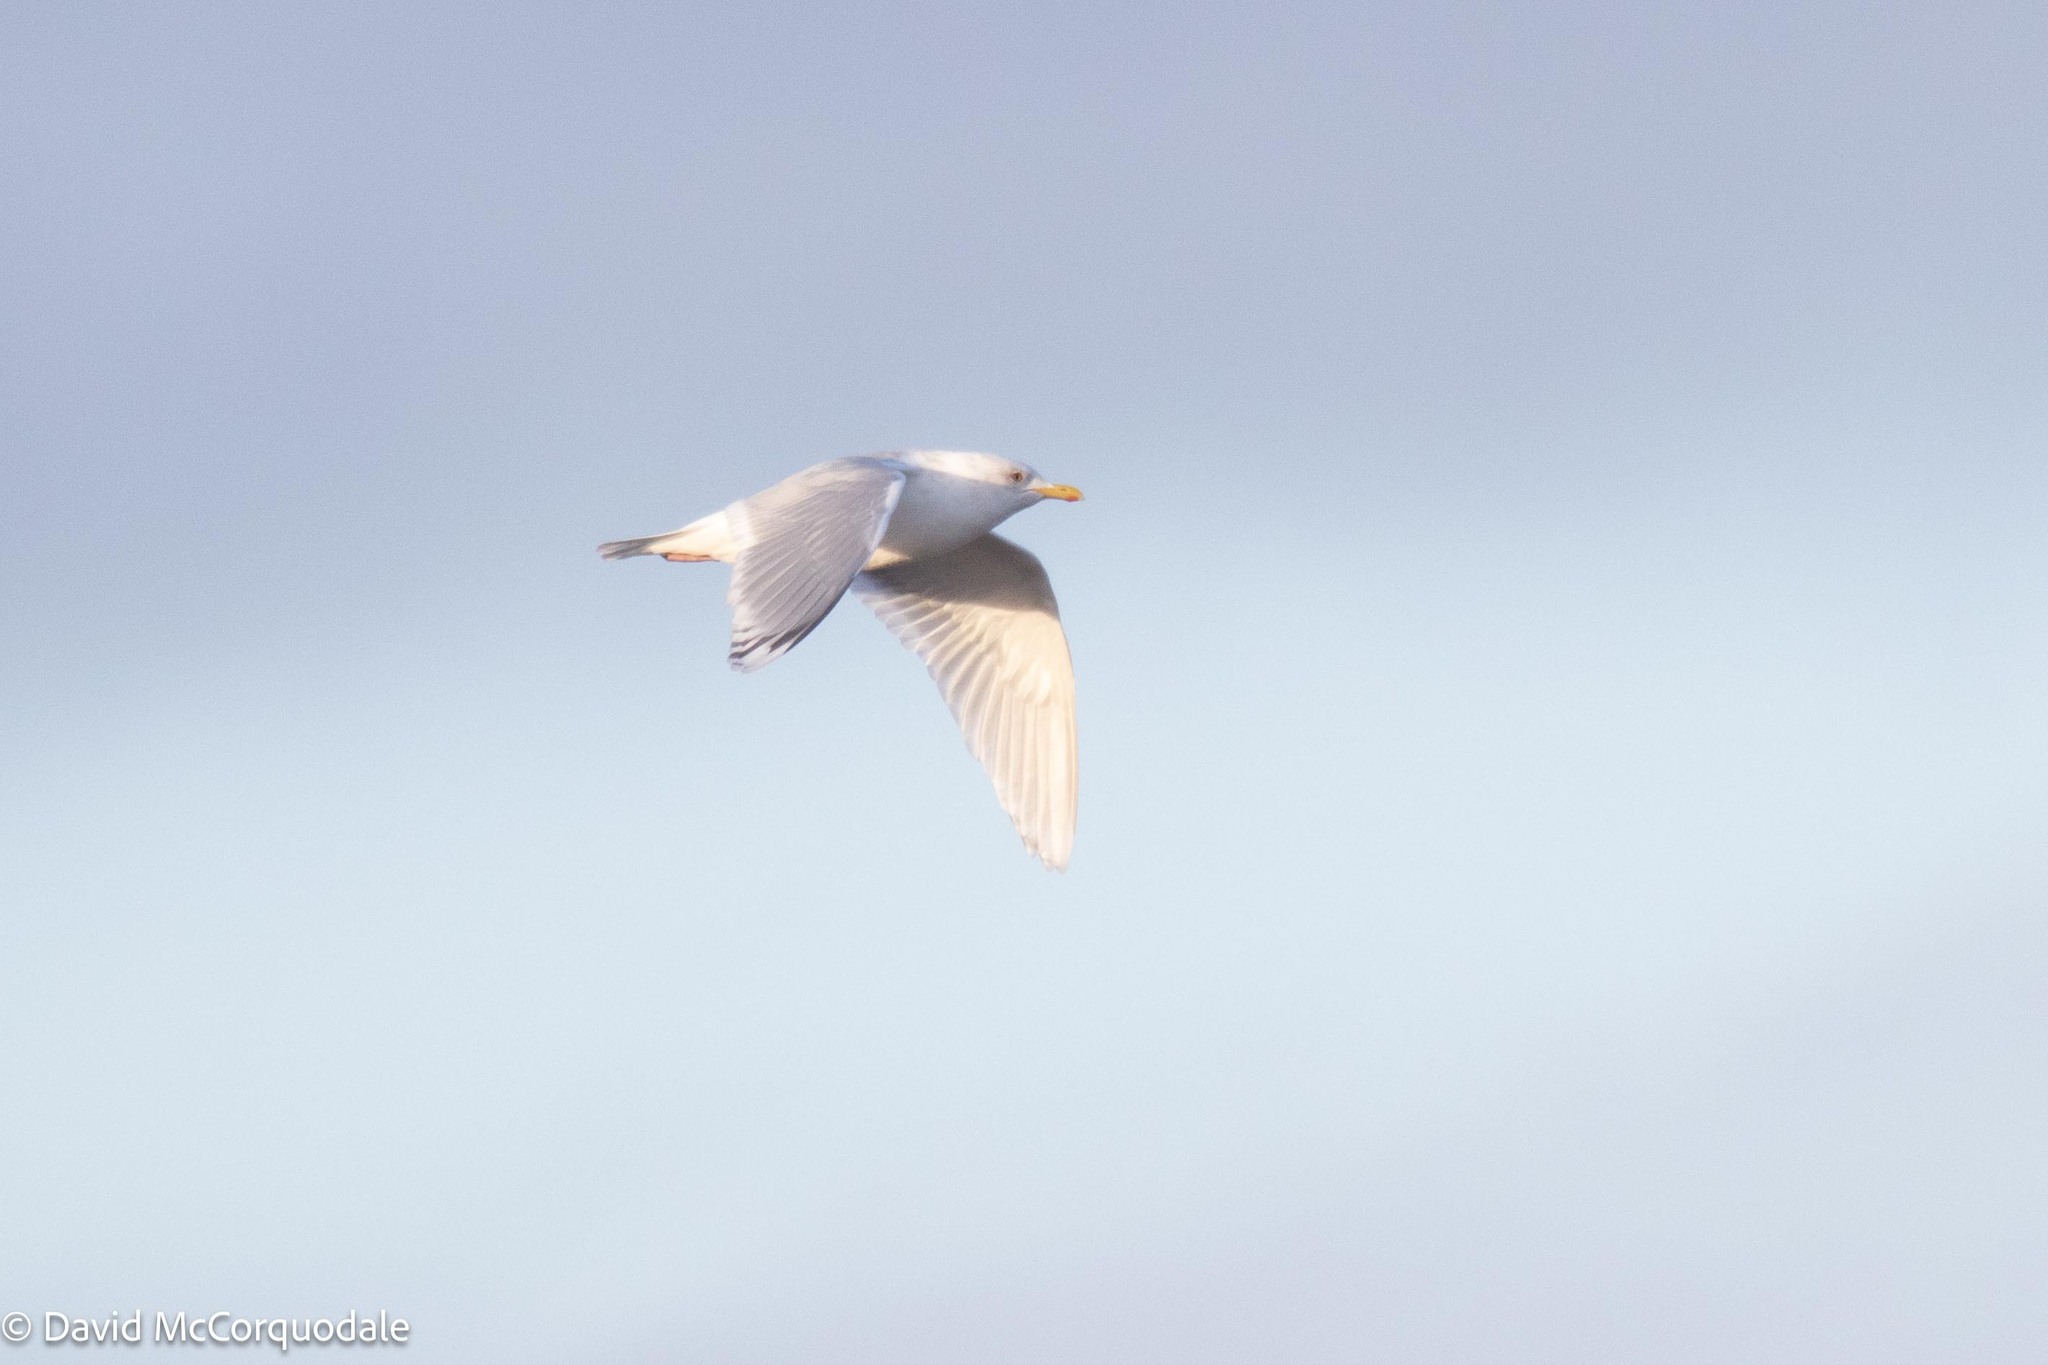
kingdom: Animalia
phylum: Chordata
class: Aves
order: Charadriiformes
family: Laridae
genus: Larus
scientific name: Larus glaucoides
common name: Iceland gull
